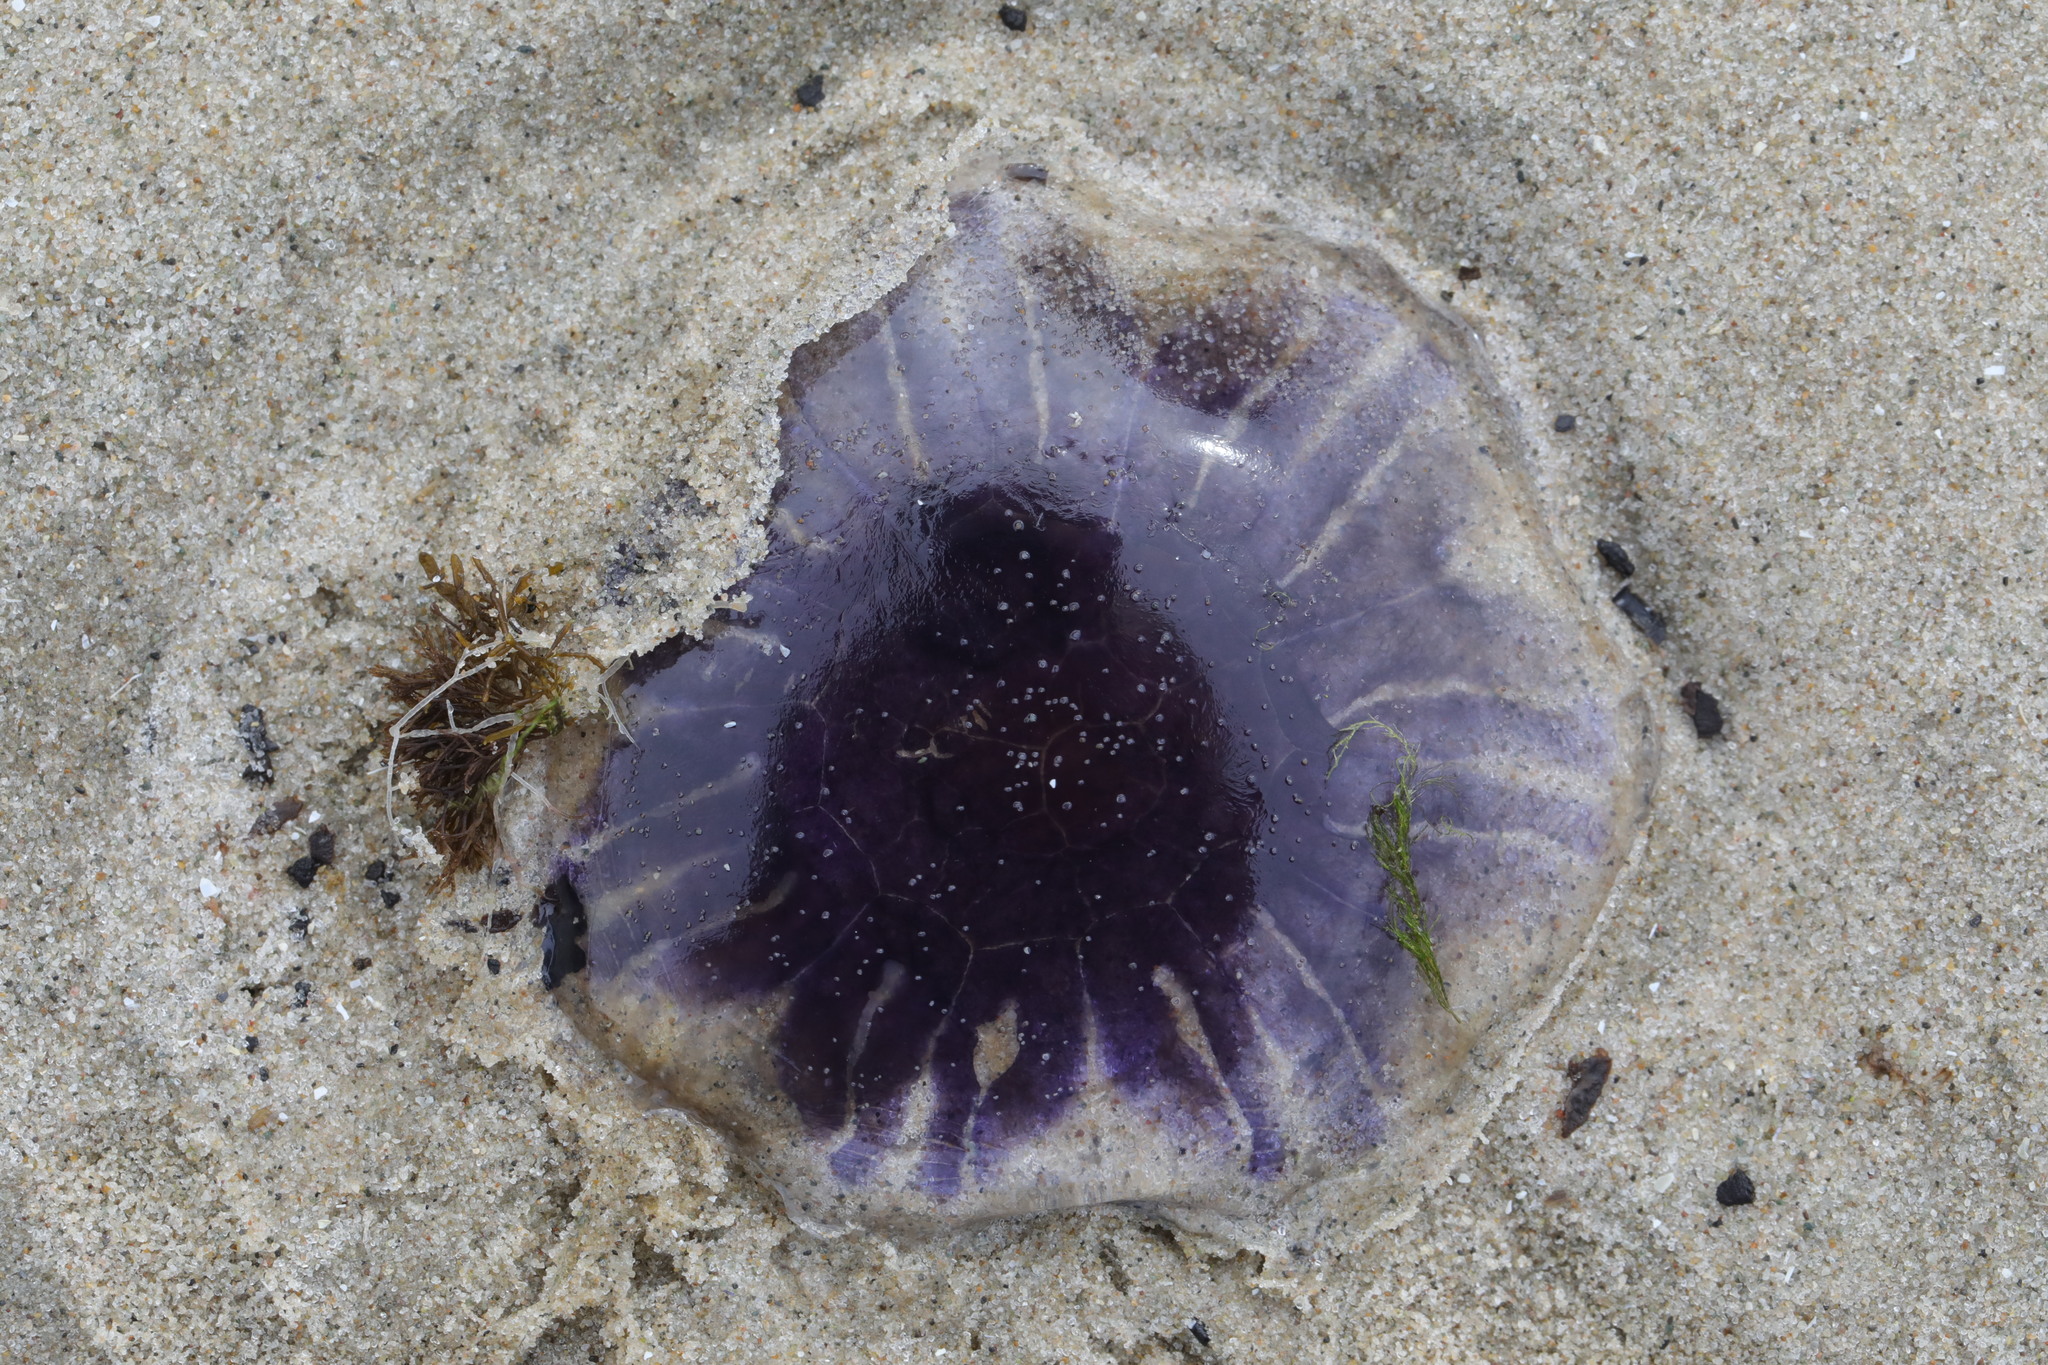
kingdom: Animalia
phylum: Cnidaria
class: Scyphozoa
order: Semaeostomeae
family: Cyaneidae
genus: Cyanea
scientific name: Cyanea lamarckii
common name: Blue jellyfish
